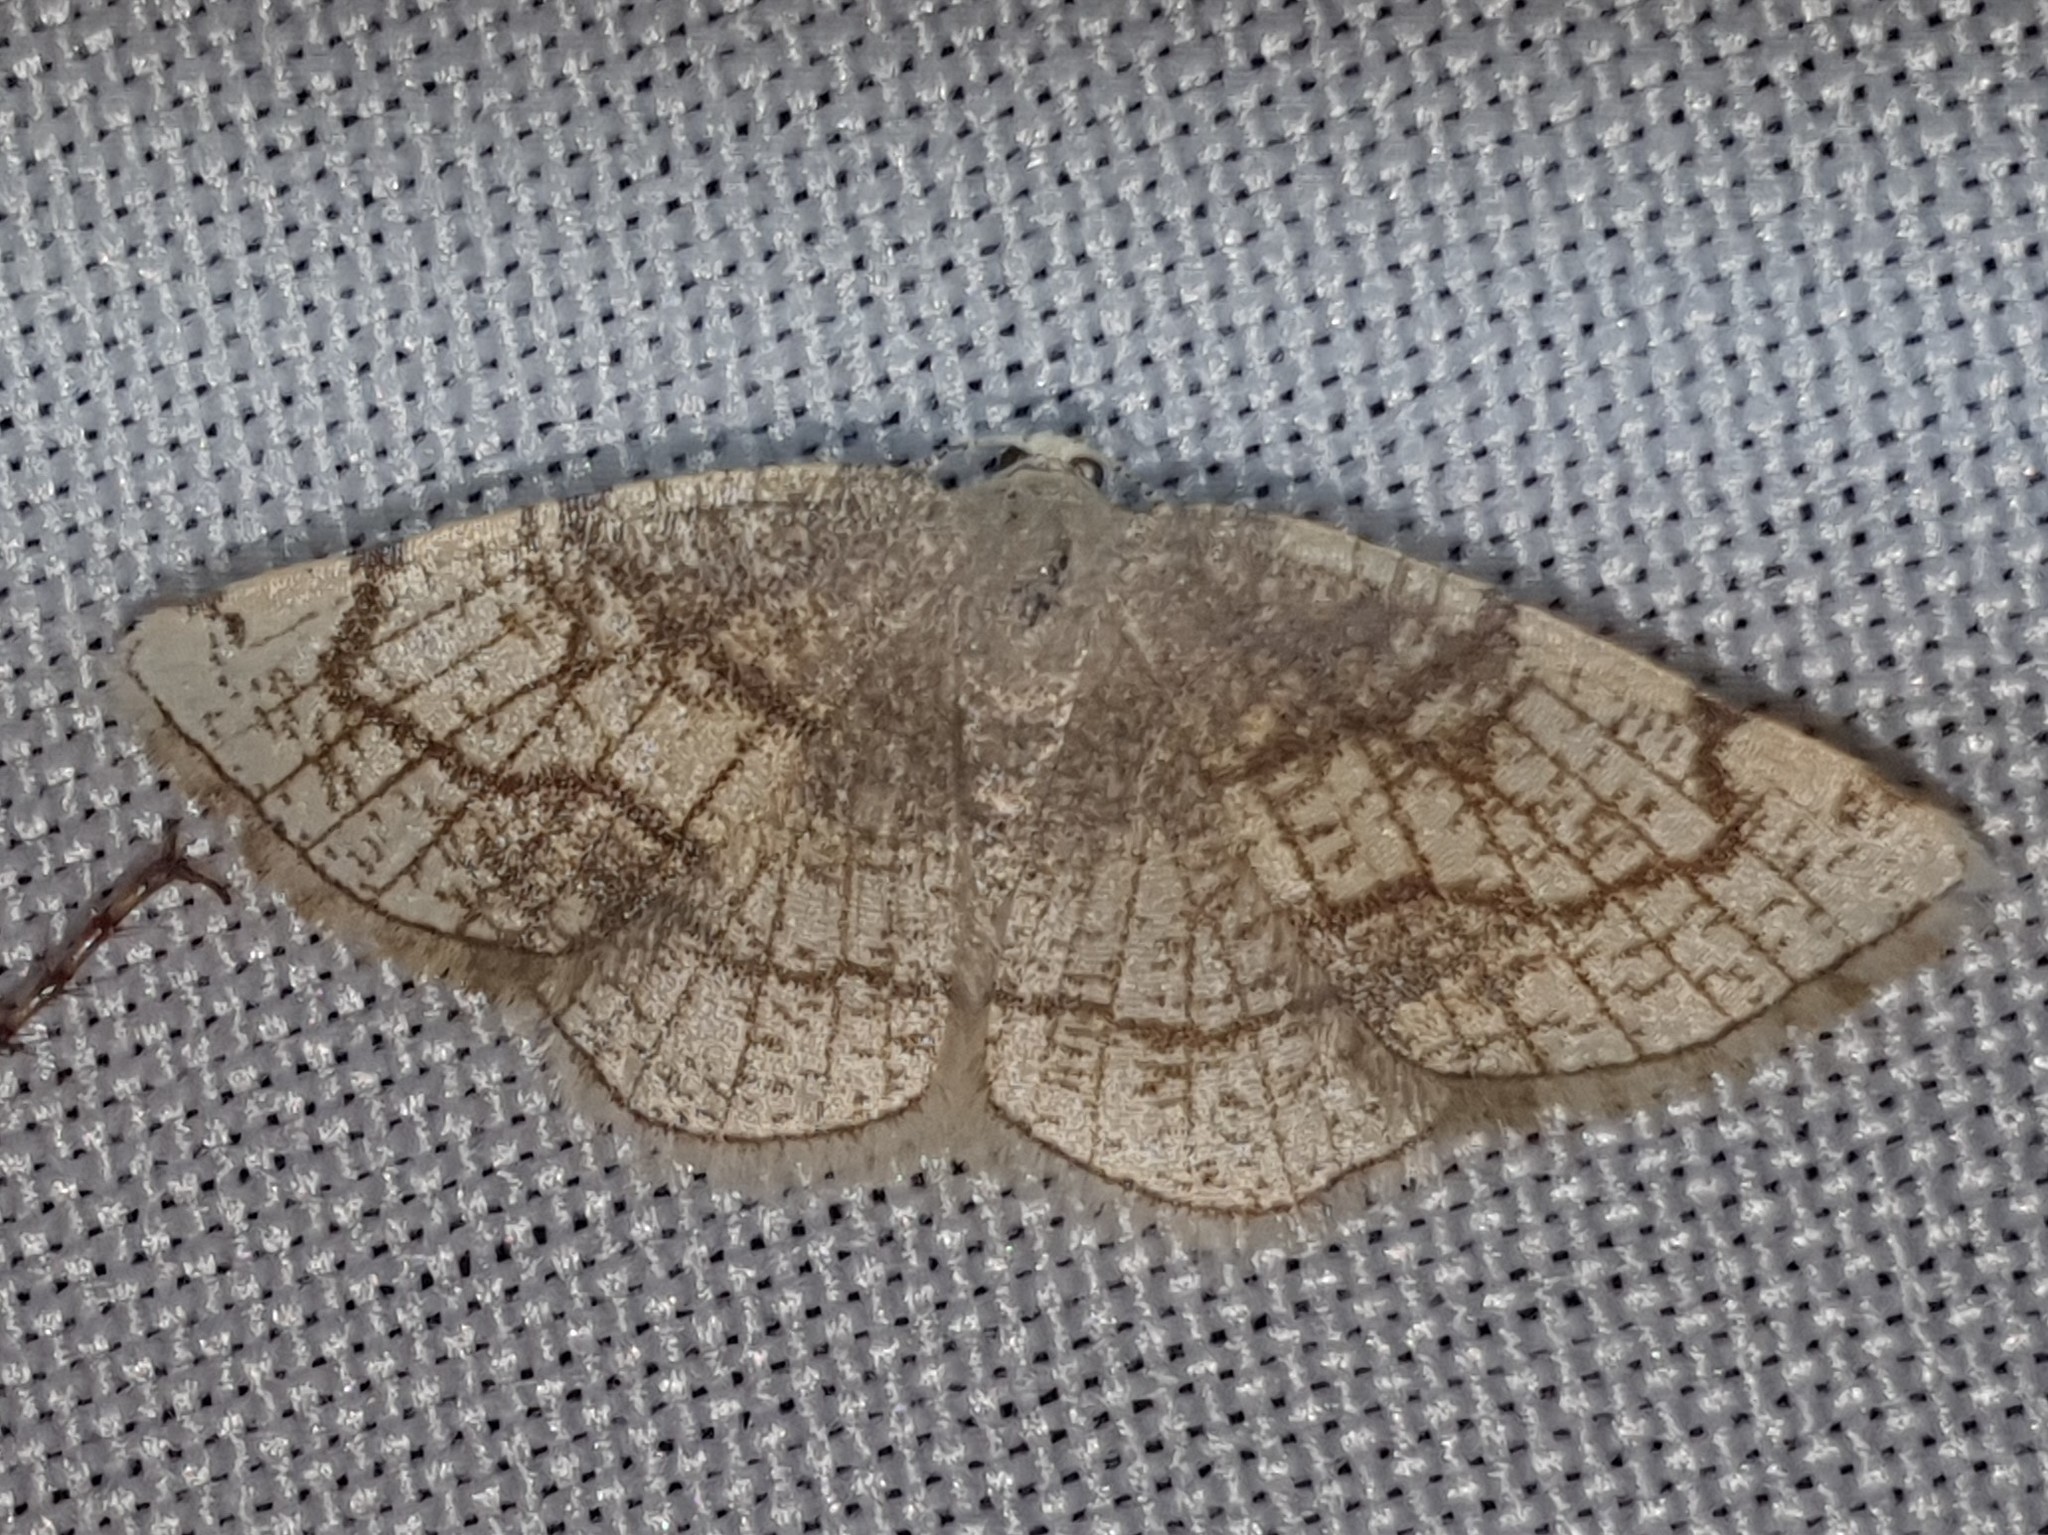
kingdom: Animalia
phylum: Arthropoda
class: Insecta
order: Lepidoptera
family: Geometridae
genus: Stegania
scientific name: Stegania trimaculata
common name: Dorset cream wave
